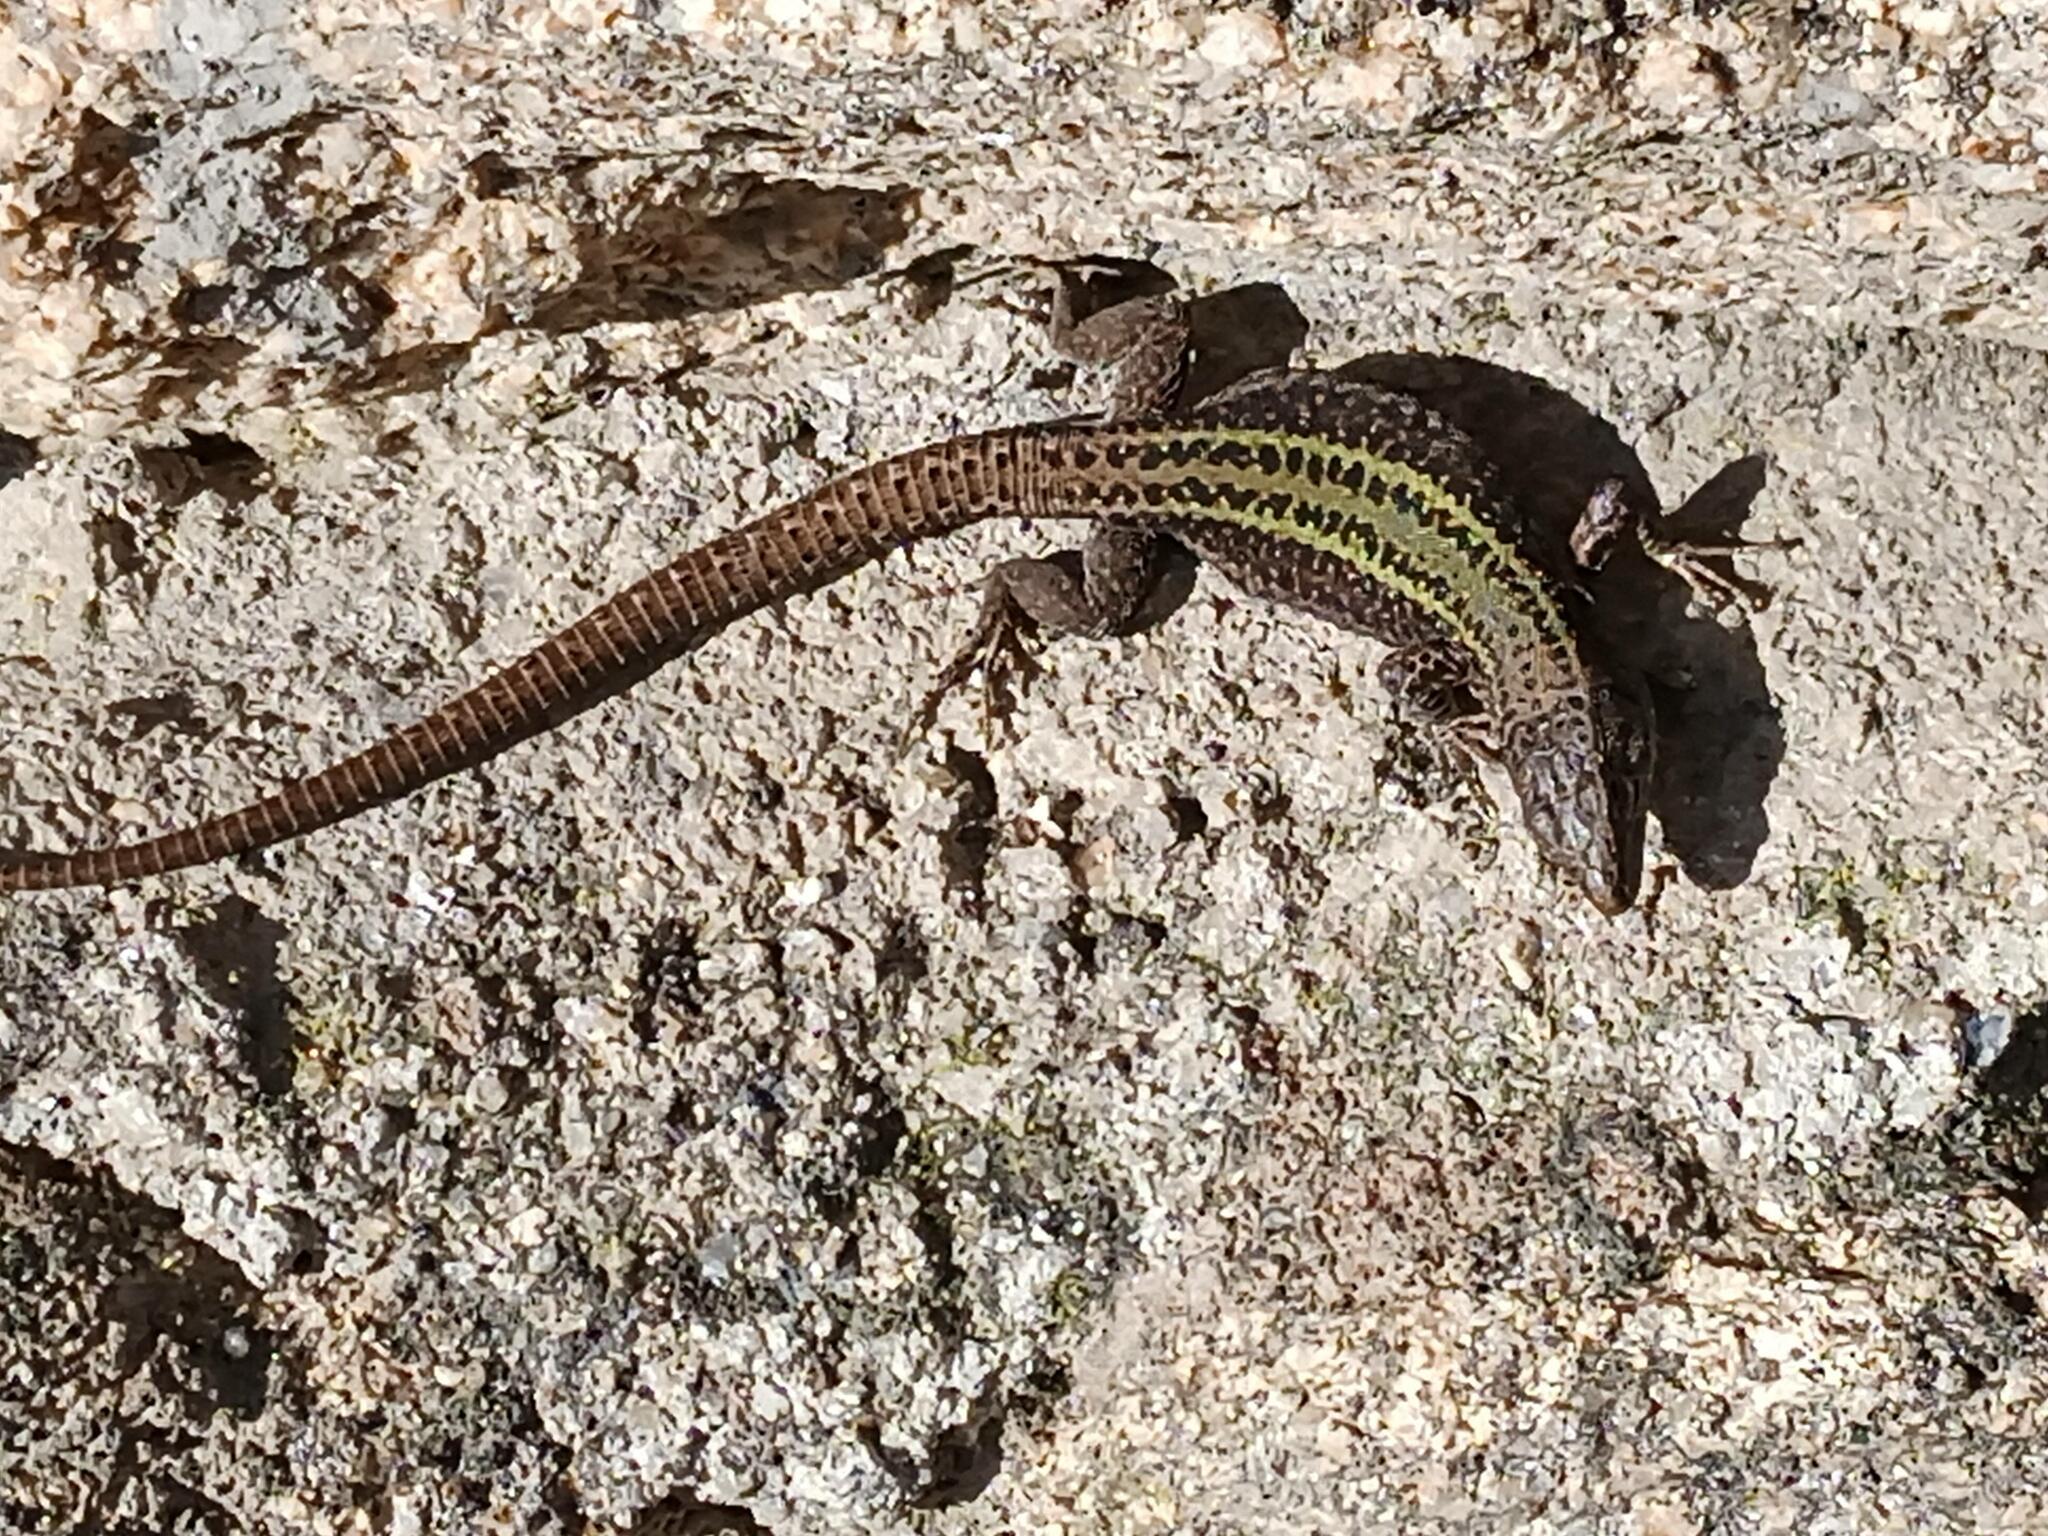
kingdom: Animalia
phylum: Chordata
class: Squamata
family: Lacertidae
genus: Podarcis
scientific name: Podarcis bocagei
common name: Bocage's wall lizard
